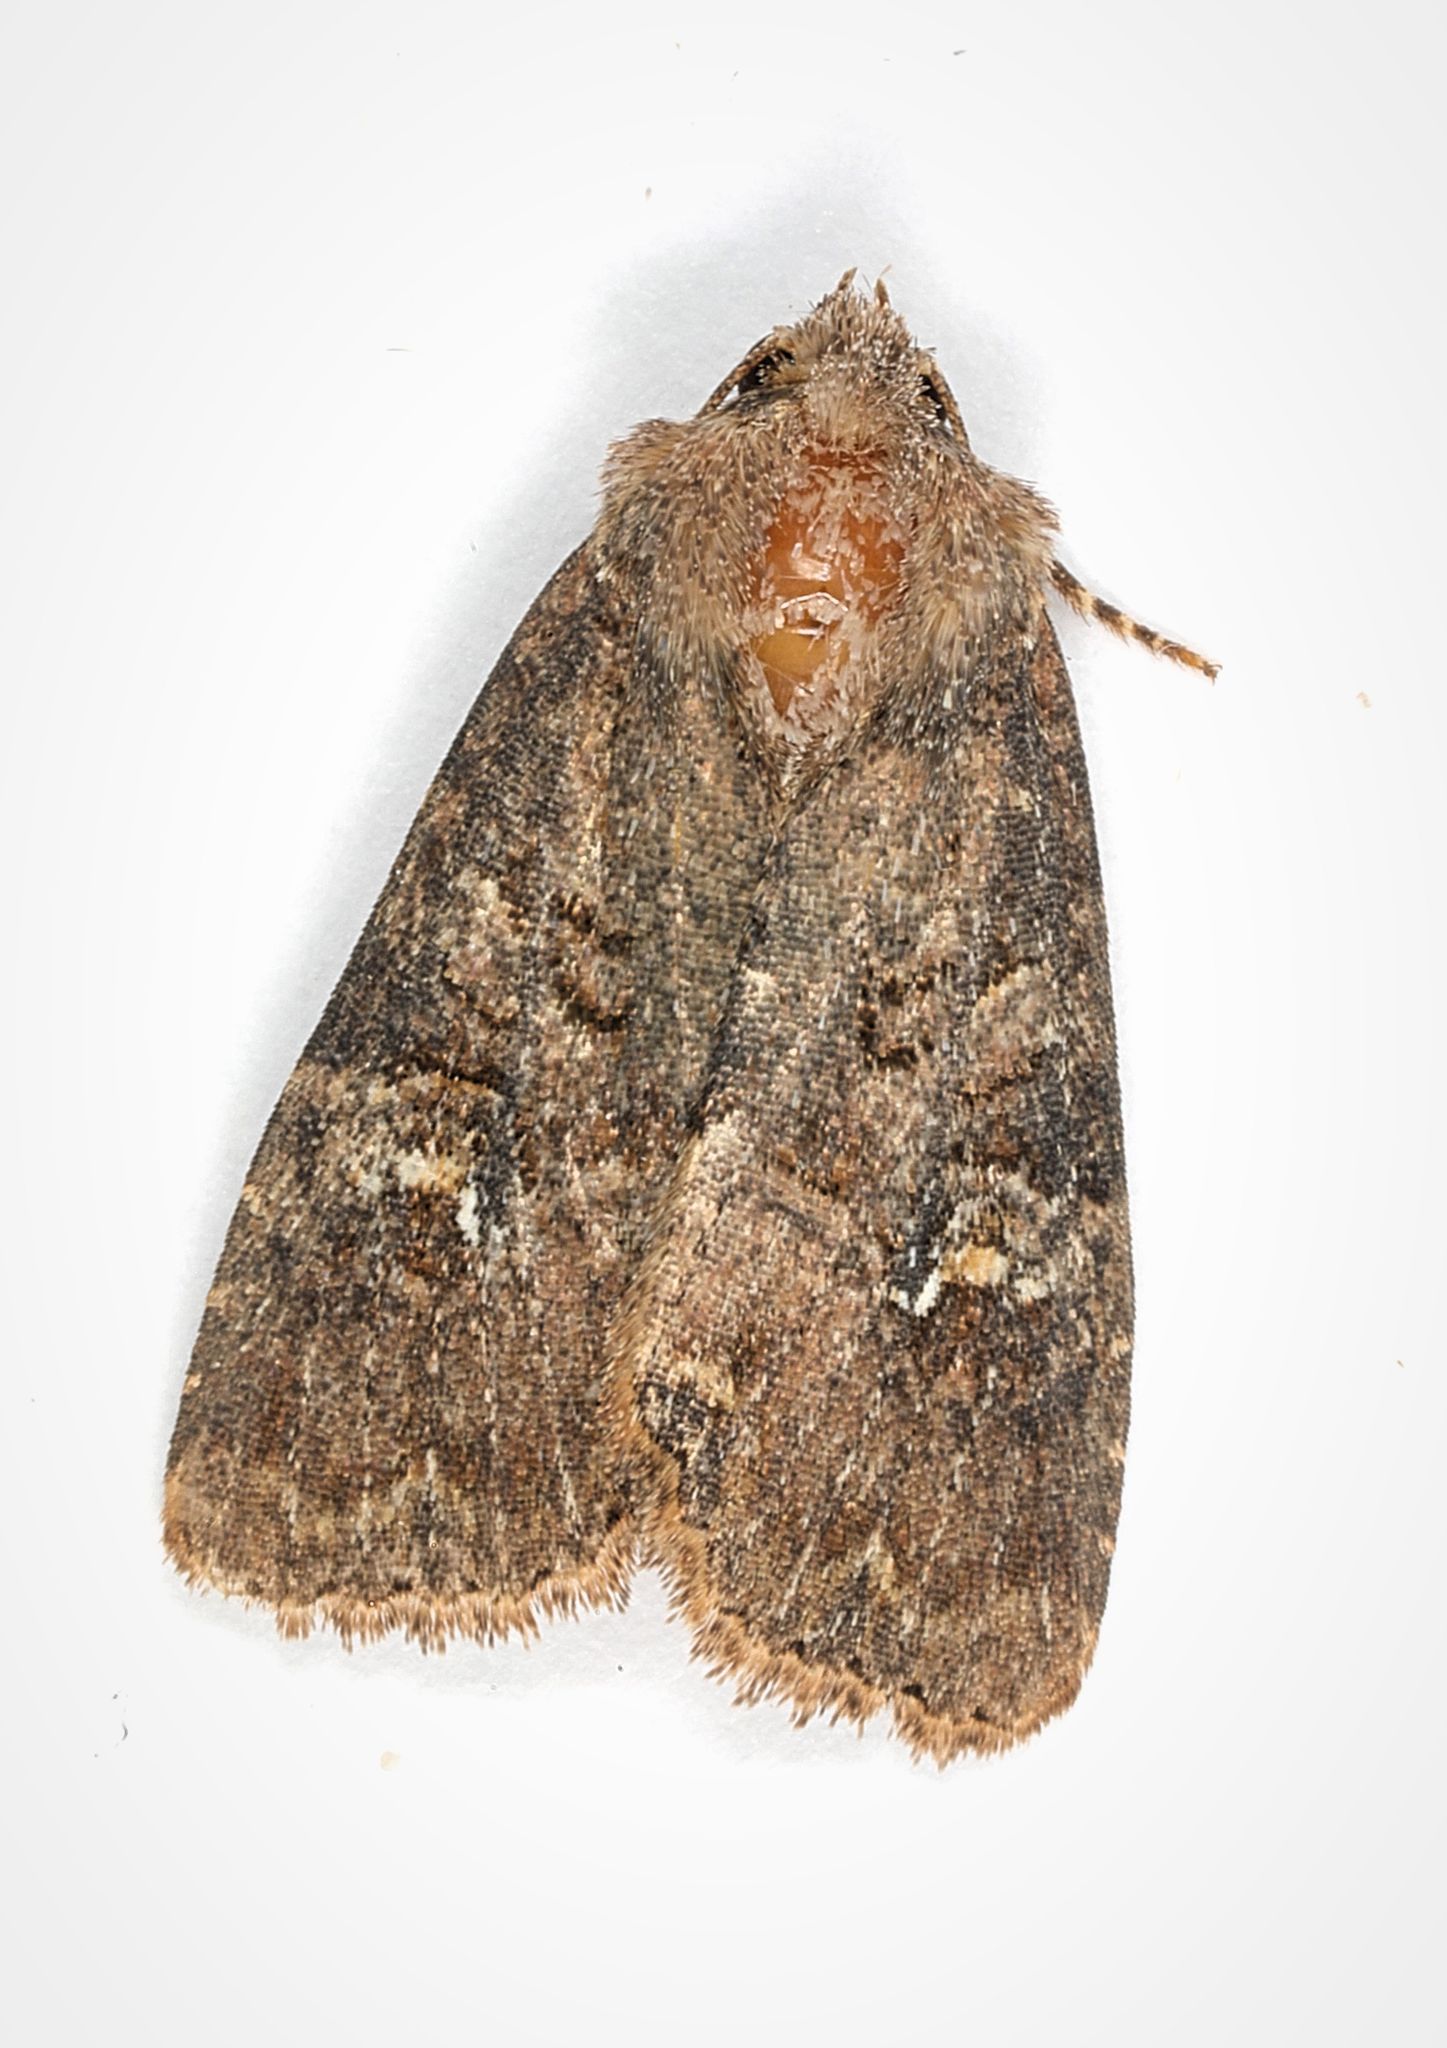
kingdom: Animalia
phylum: Arthropoda
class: Insecta
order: Lepidoptera
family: Noctuidae
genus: Mesapamea
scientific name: Mesapamea
